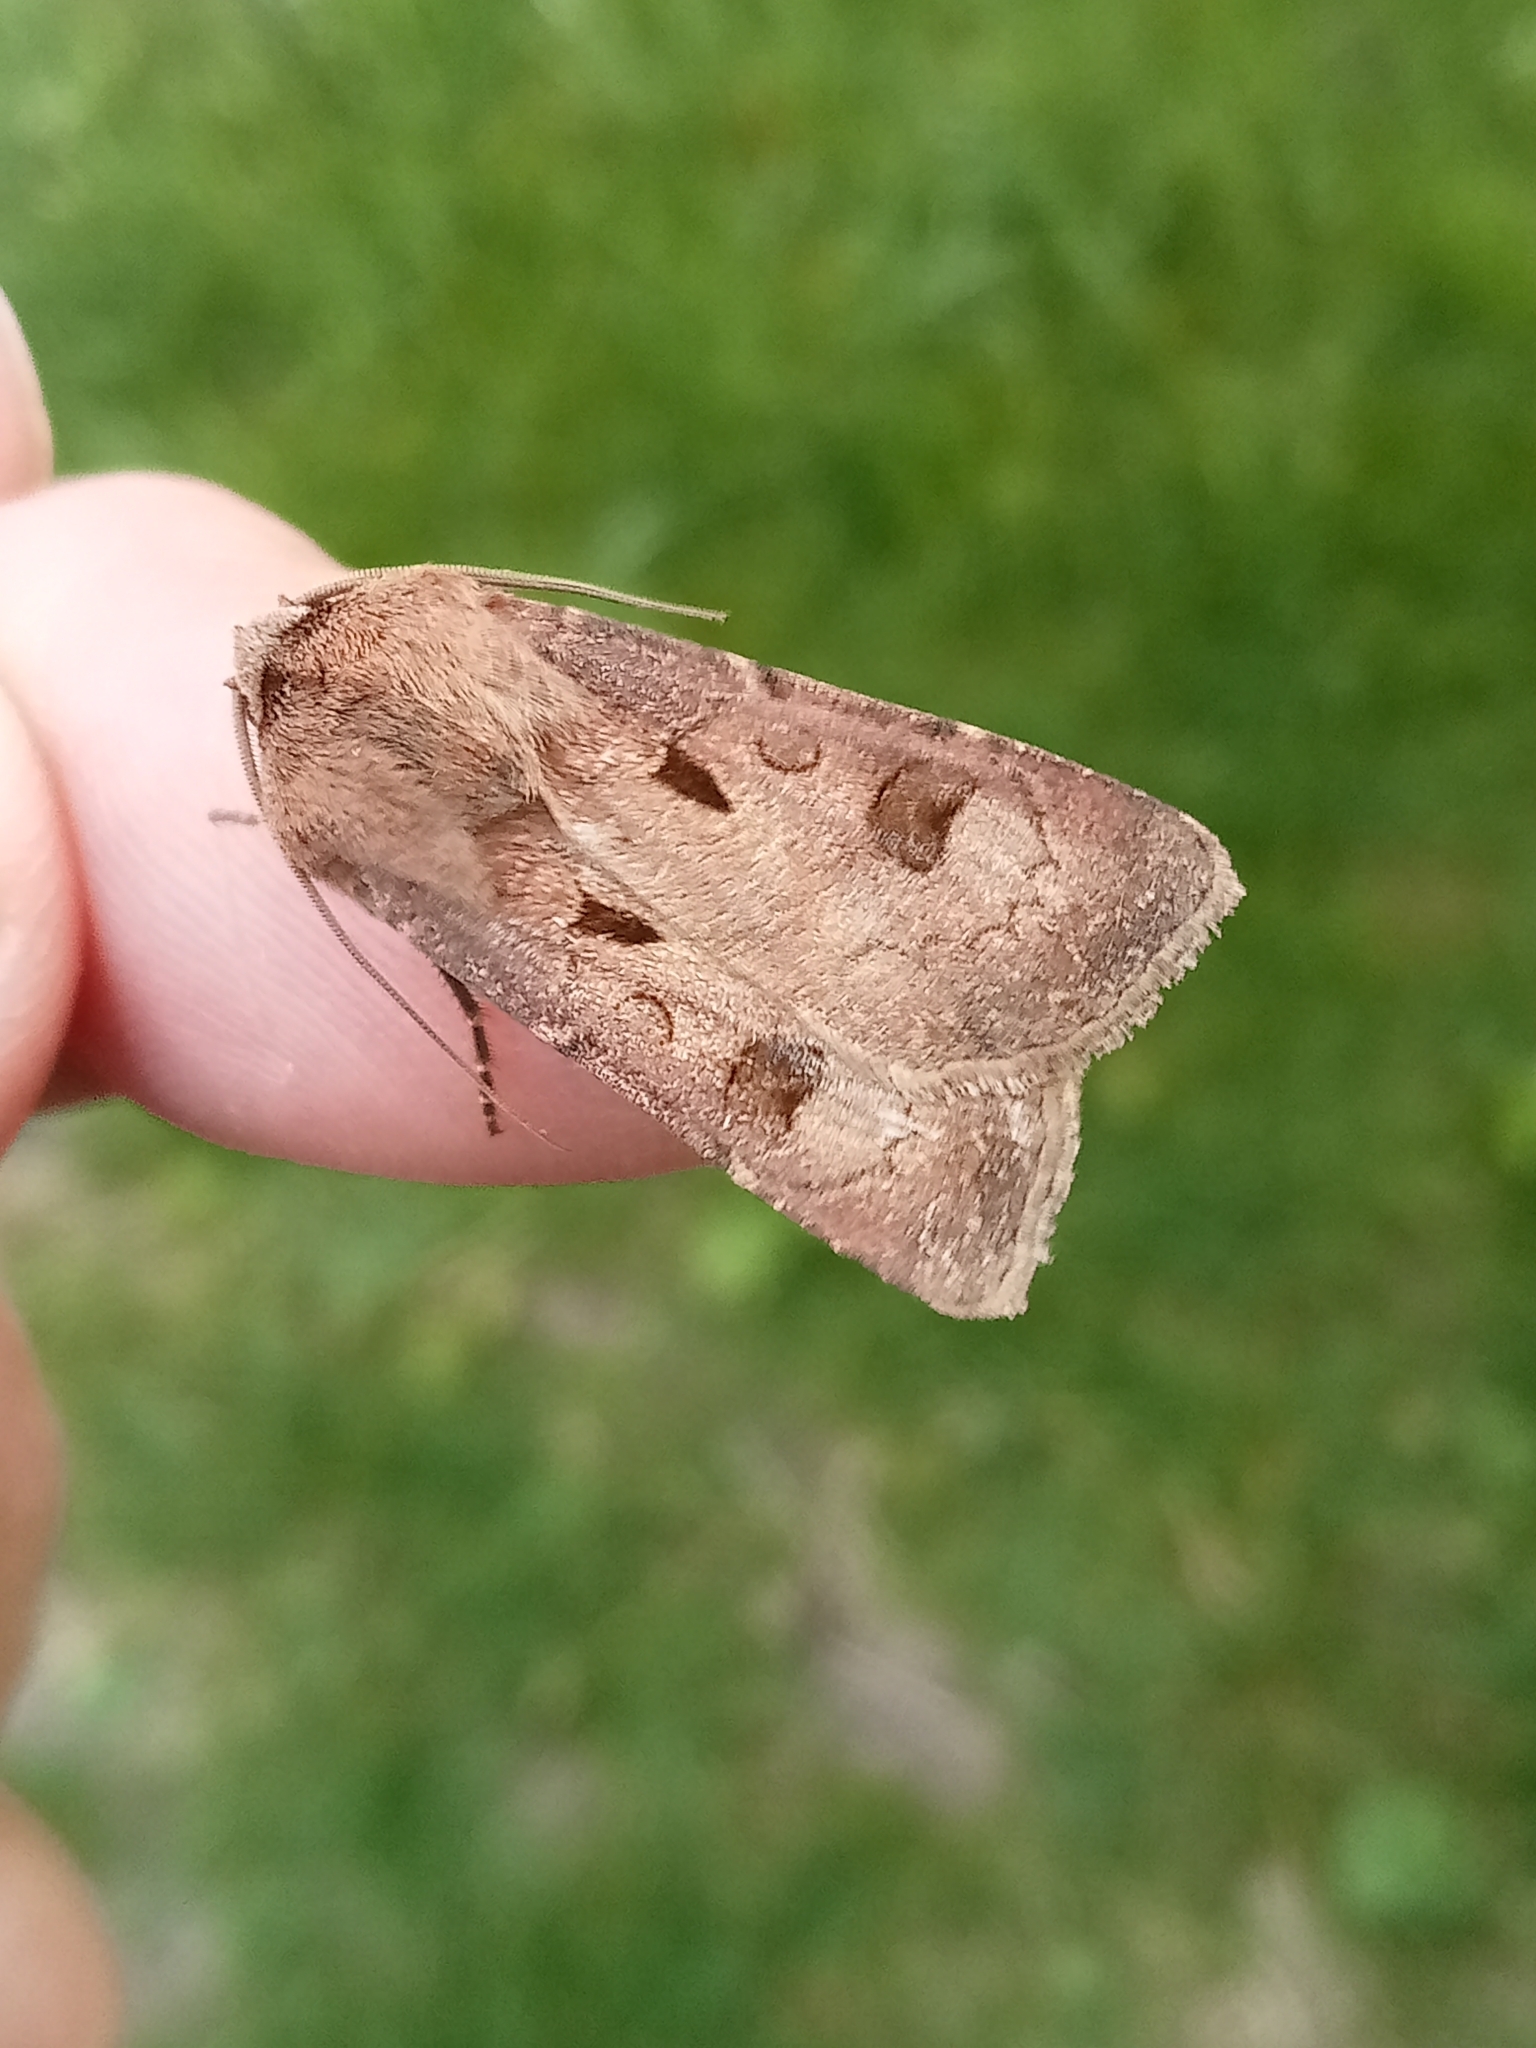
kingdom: Animalia
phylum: Arthropoda
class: Insecta
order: Lepidoptera
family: Noctuidae
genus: Agrotis
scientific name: Agrotis exclamationis
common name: Heart and dart
